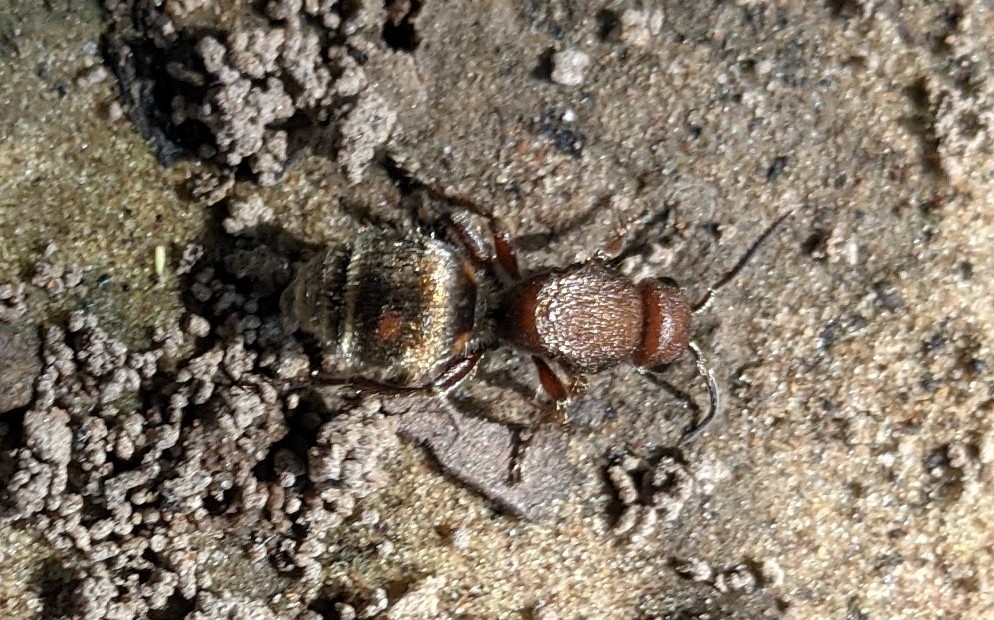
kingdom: Animalia
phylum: Arthropoda
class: Insecta
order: Hymenoptera
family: Mutillidae
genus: Dasymutilla
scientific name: Dasymutilla
